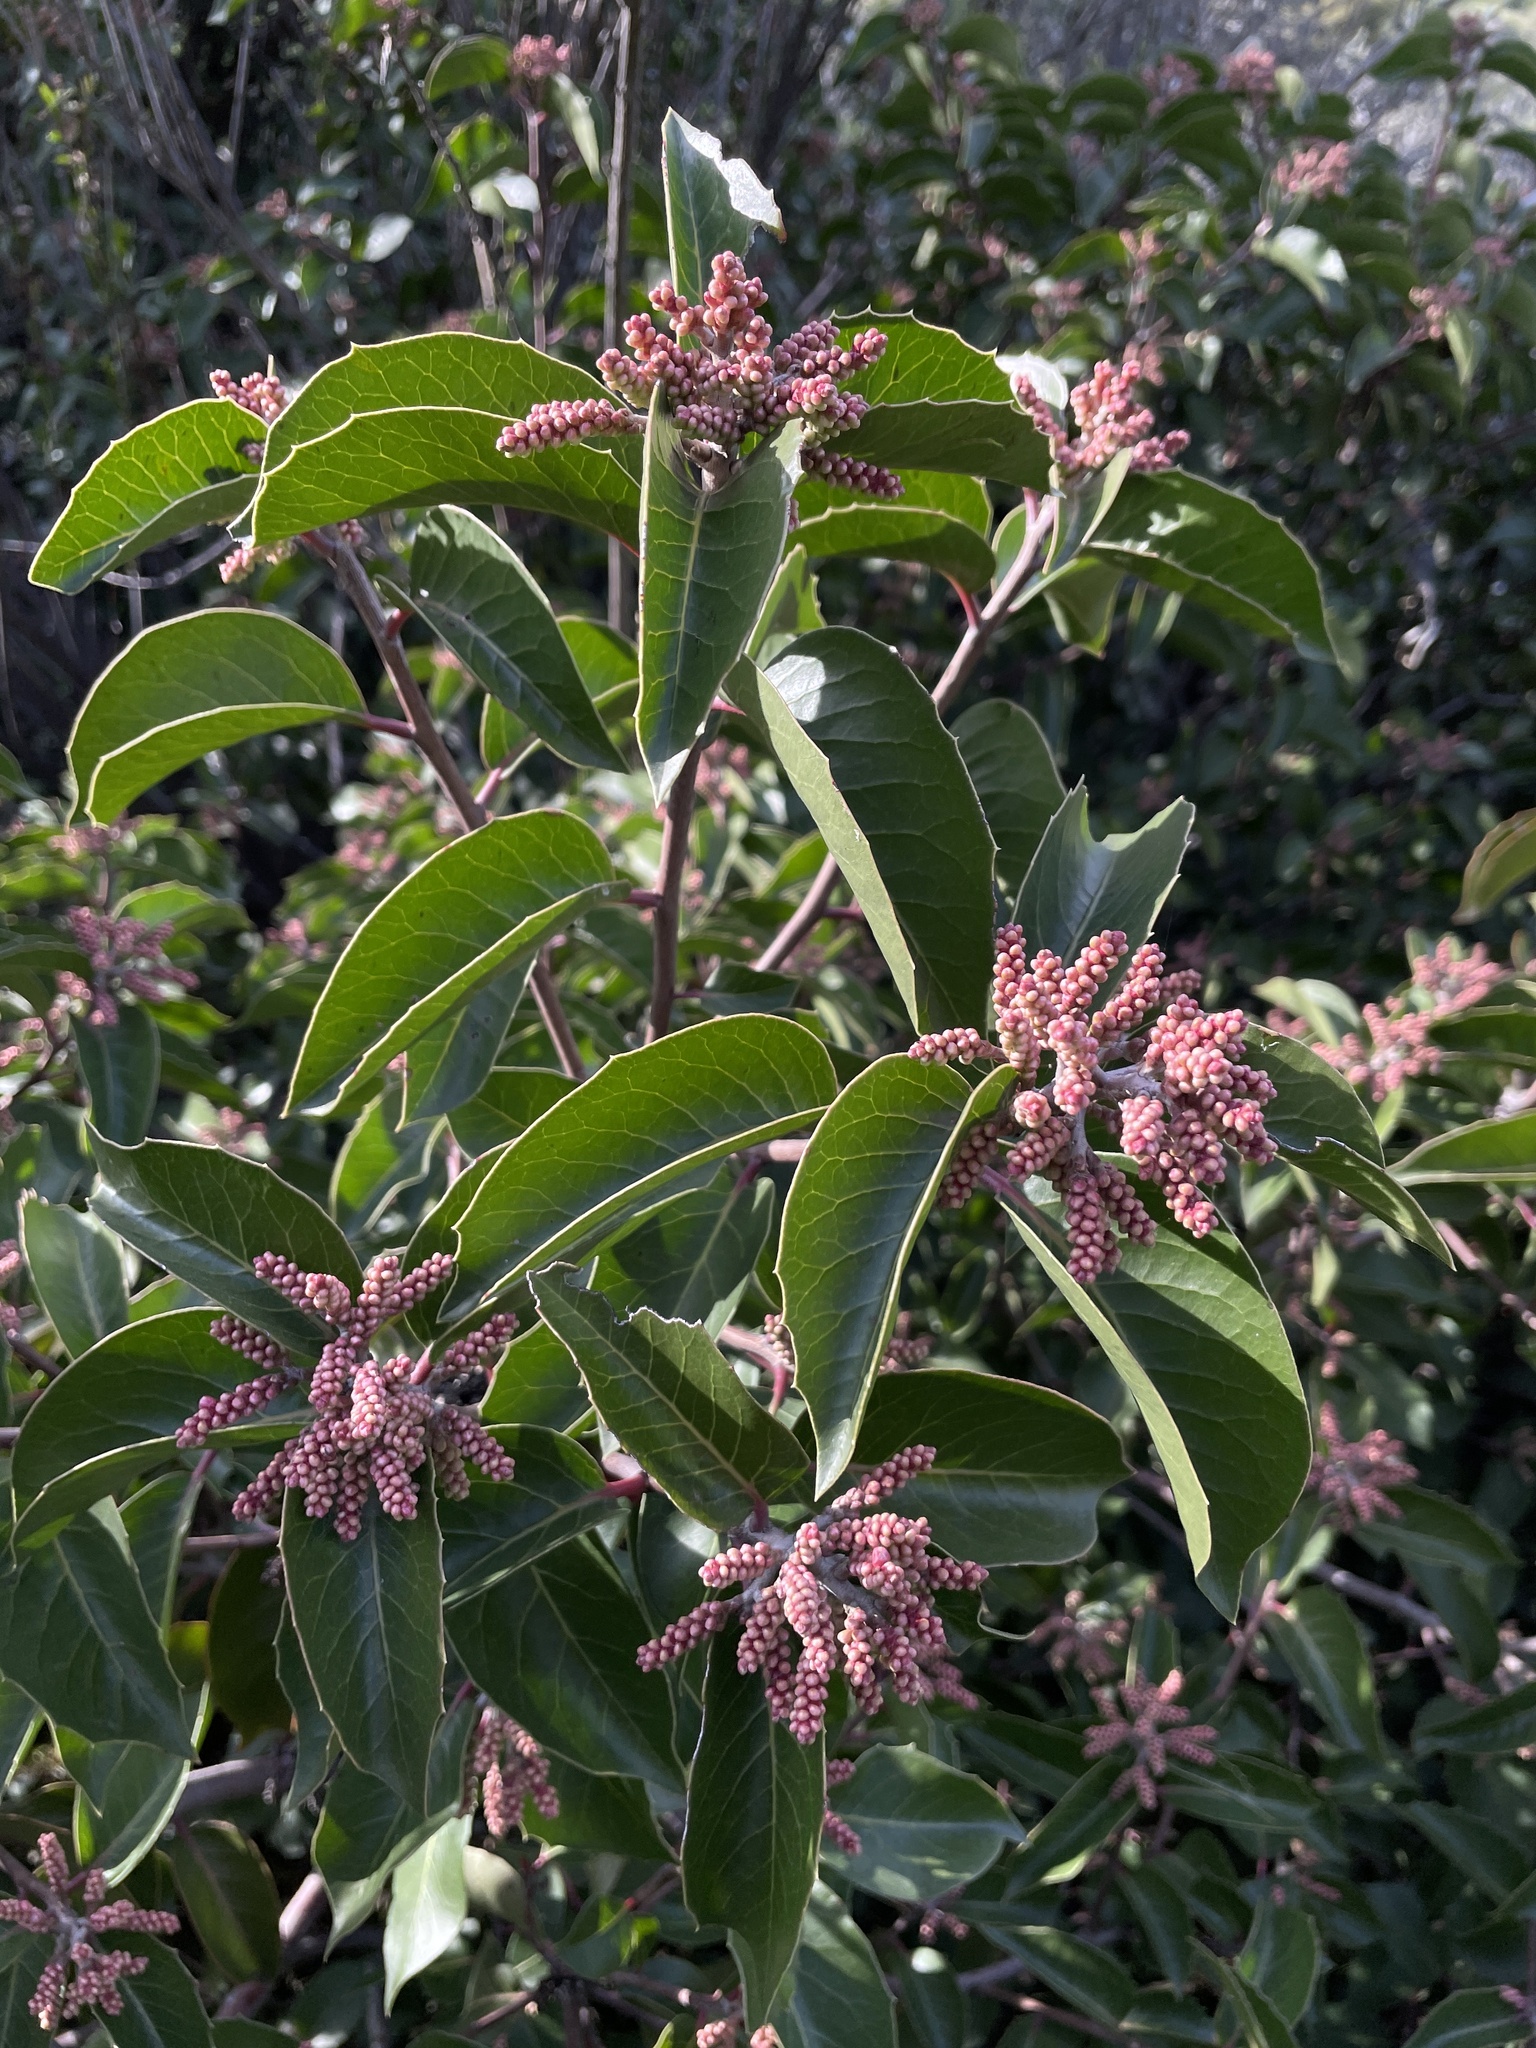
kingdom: Plantae
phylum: Tracheophyta
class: Magnoliopsida
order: Sapindales
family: Anacardiaceae
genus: Rhus
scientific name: Rhus ovata
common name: Sugar sumac
